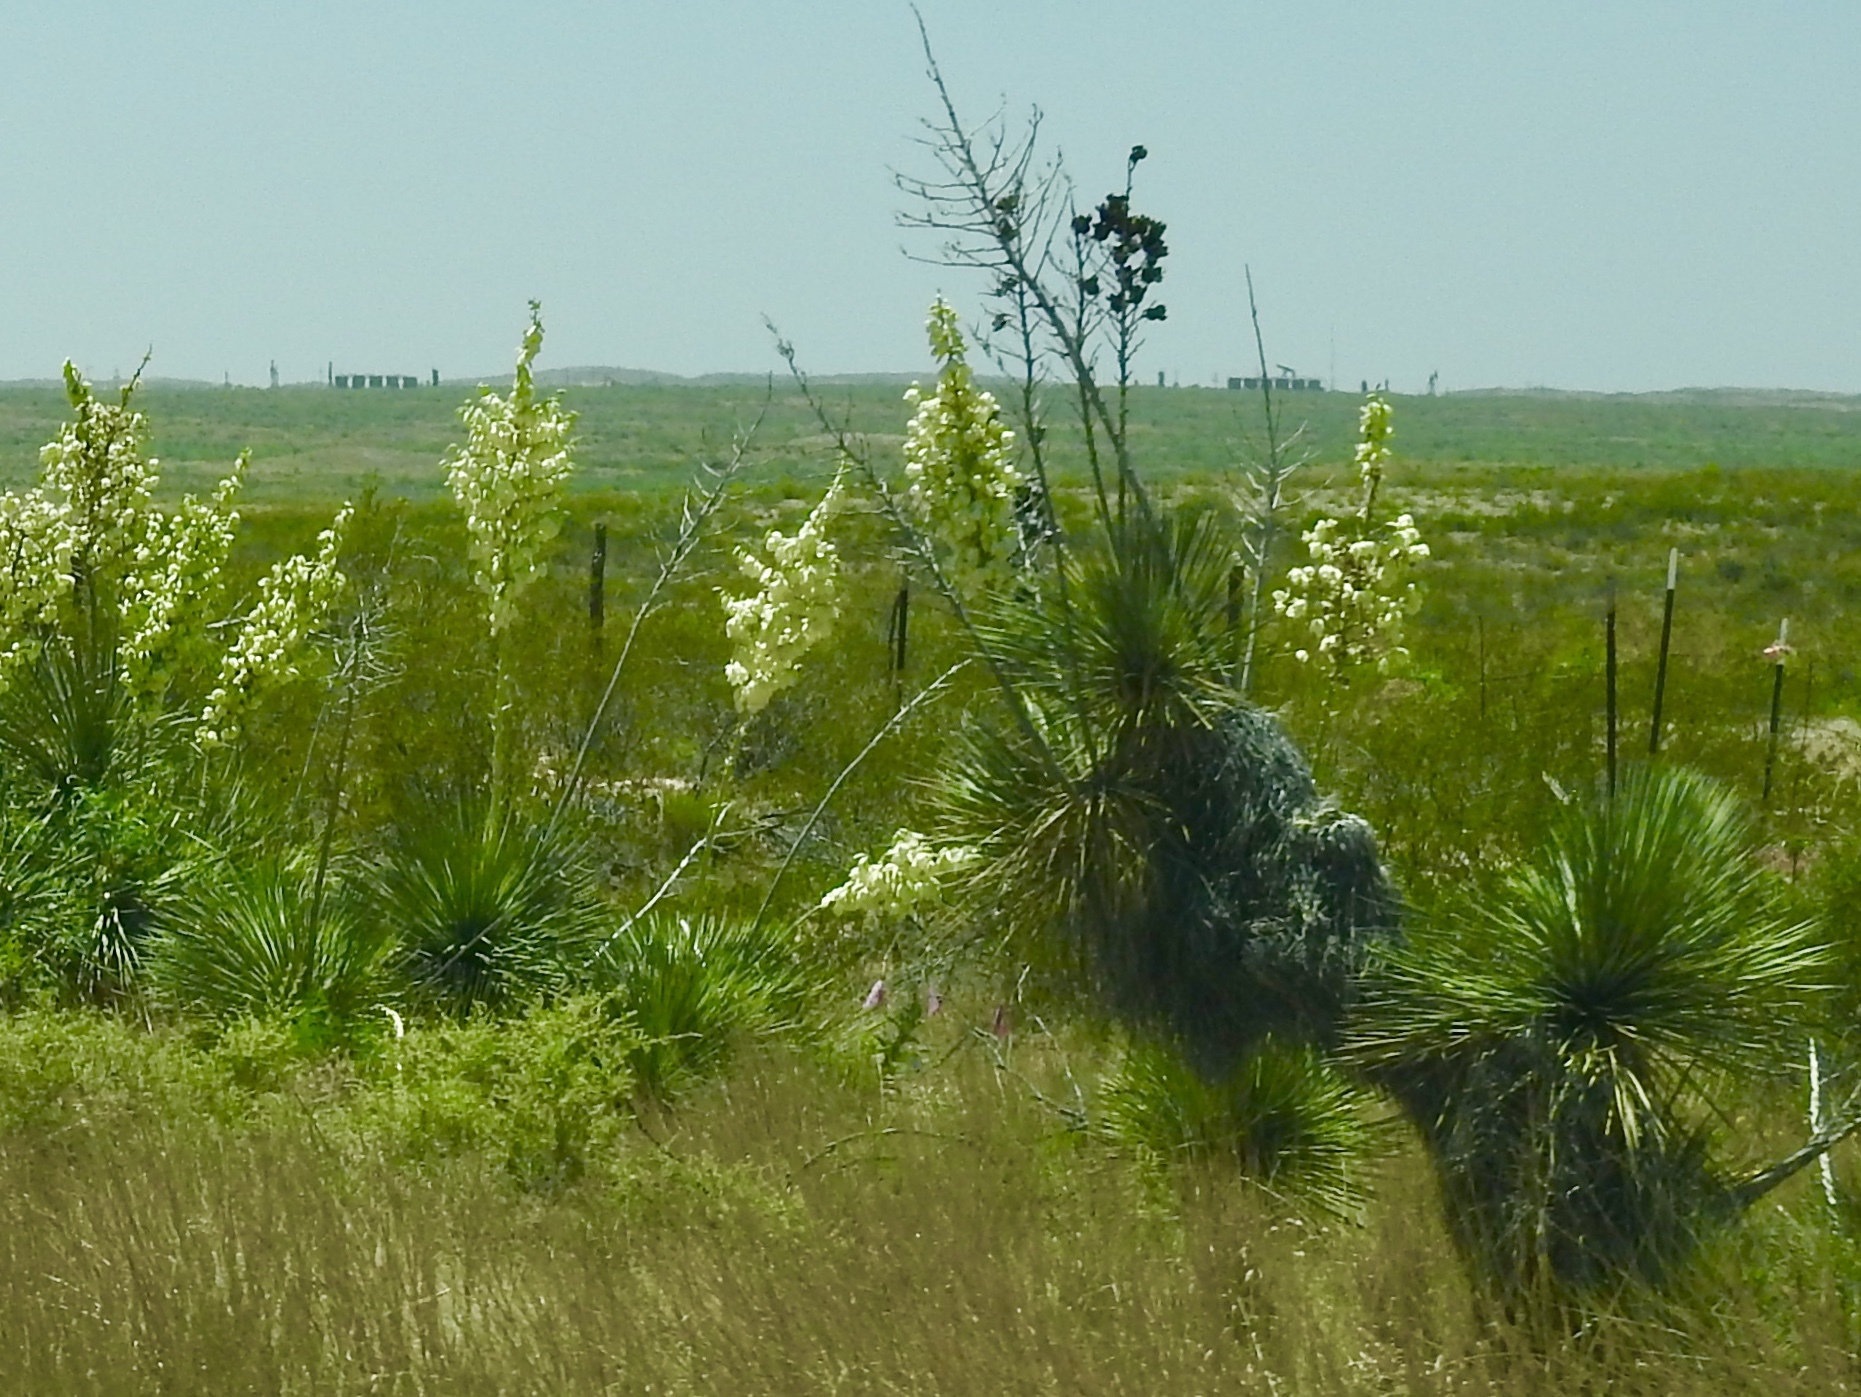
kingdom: Plantae
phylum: Tracheophyta
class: Liliopsida
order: Asparagales
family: Asparagaceae
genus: Yucca
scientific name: Yucca elata
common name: Palmella
